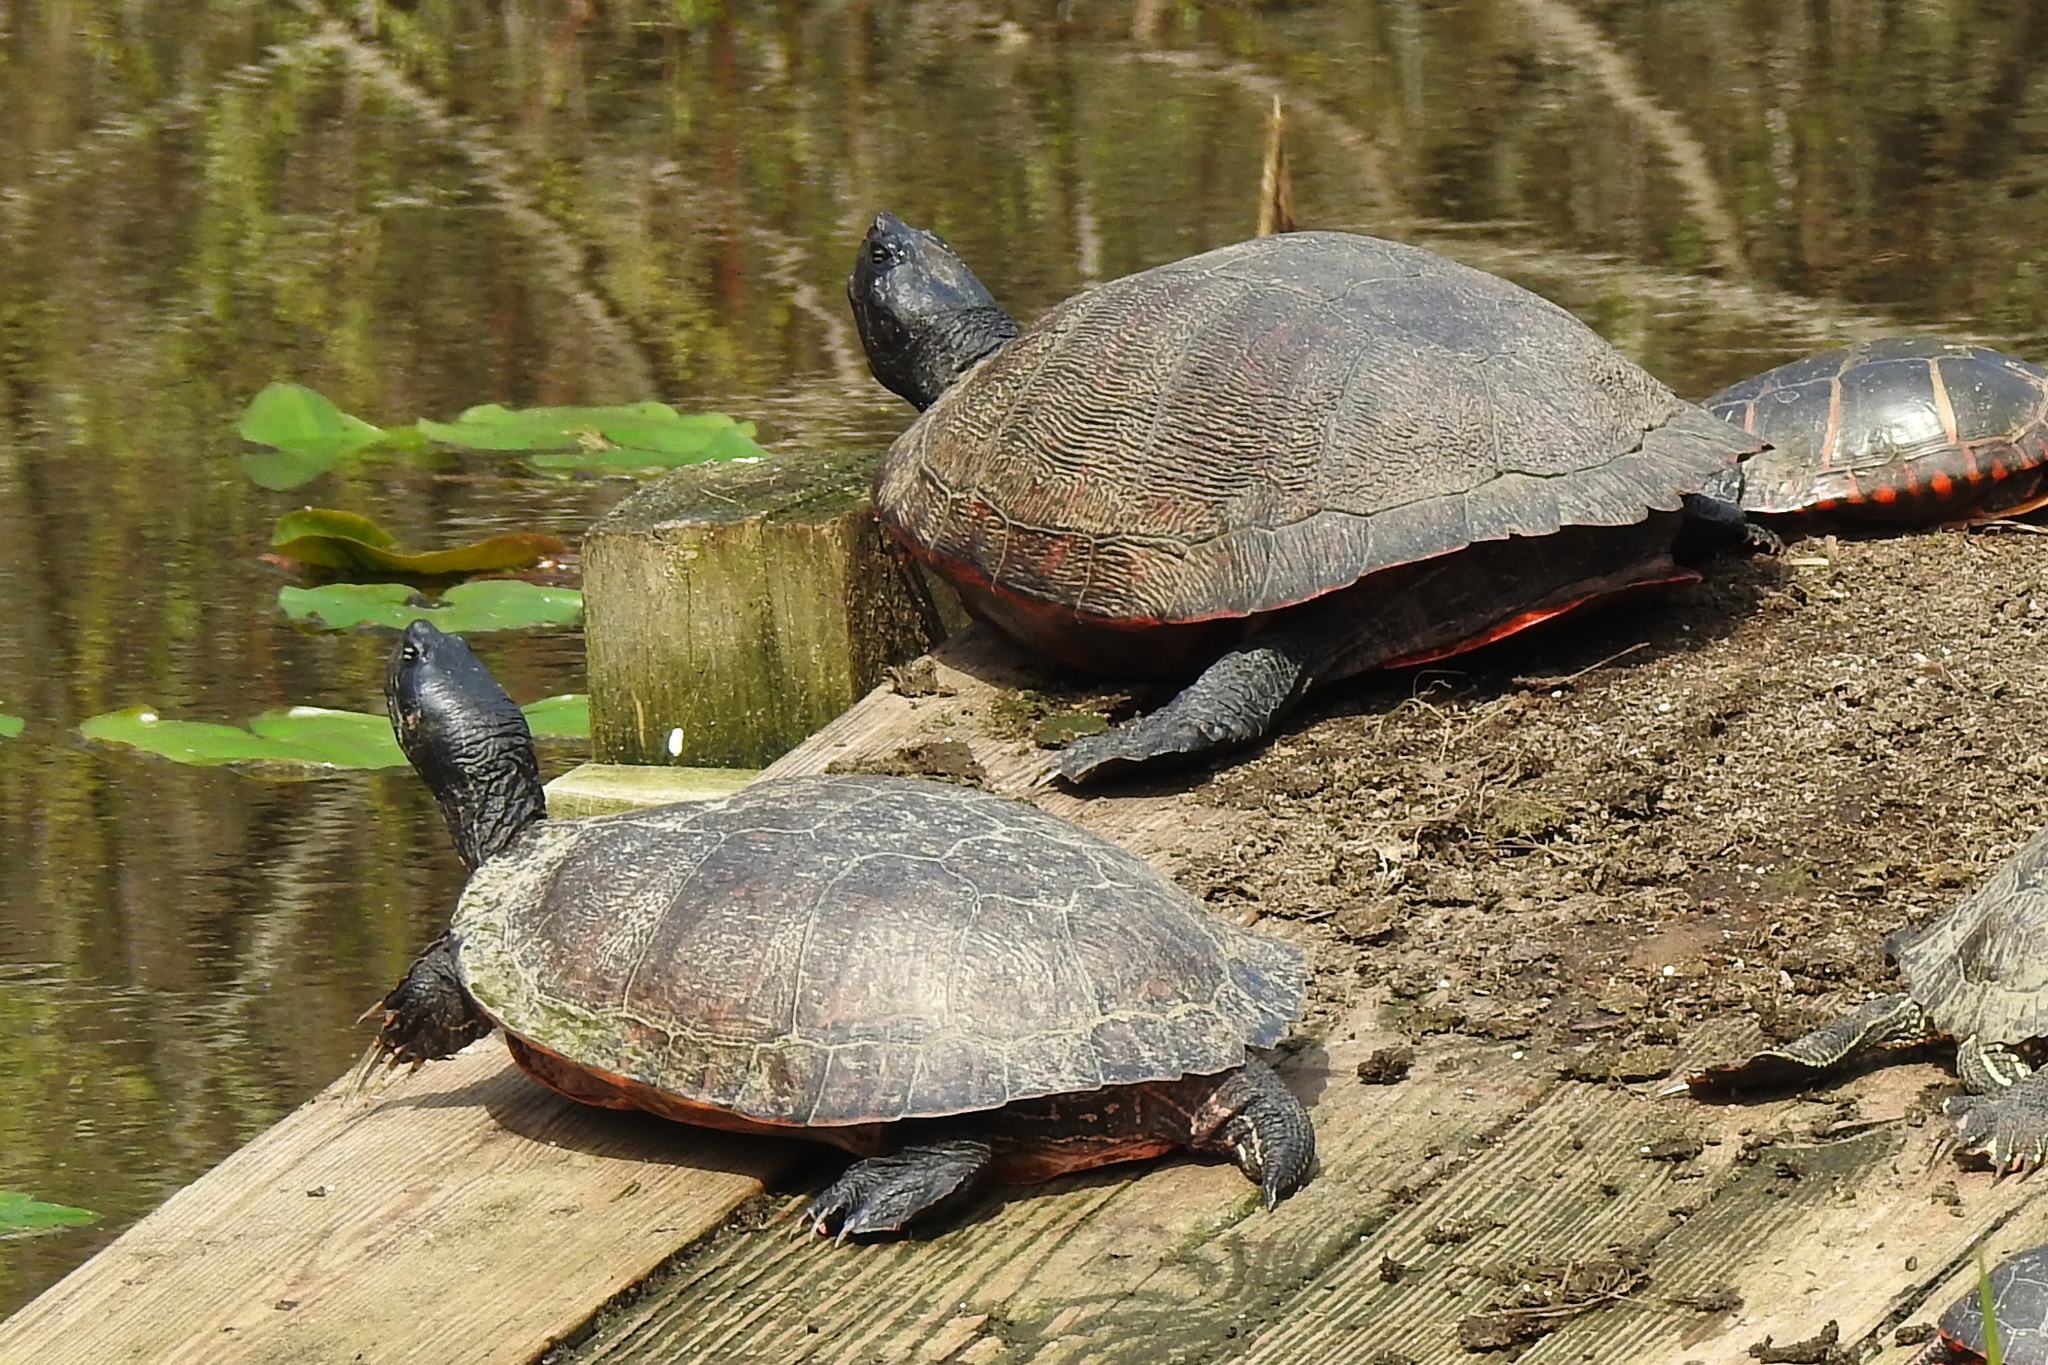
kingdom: Animalia
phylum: Chordata
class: Testudines
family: Emydidae
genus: Pseudemys
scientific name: Pseudemys rubriventris
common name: American red-bellied turtle
